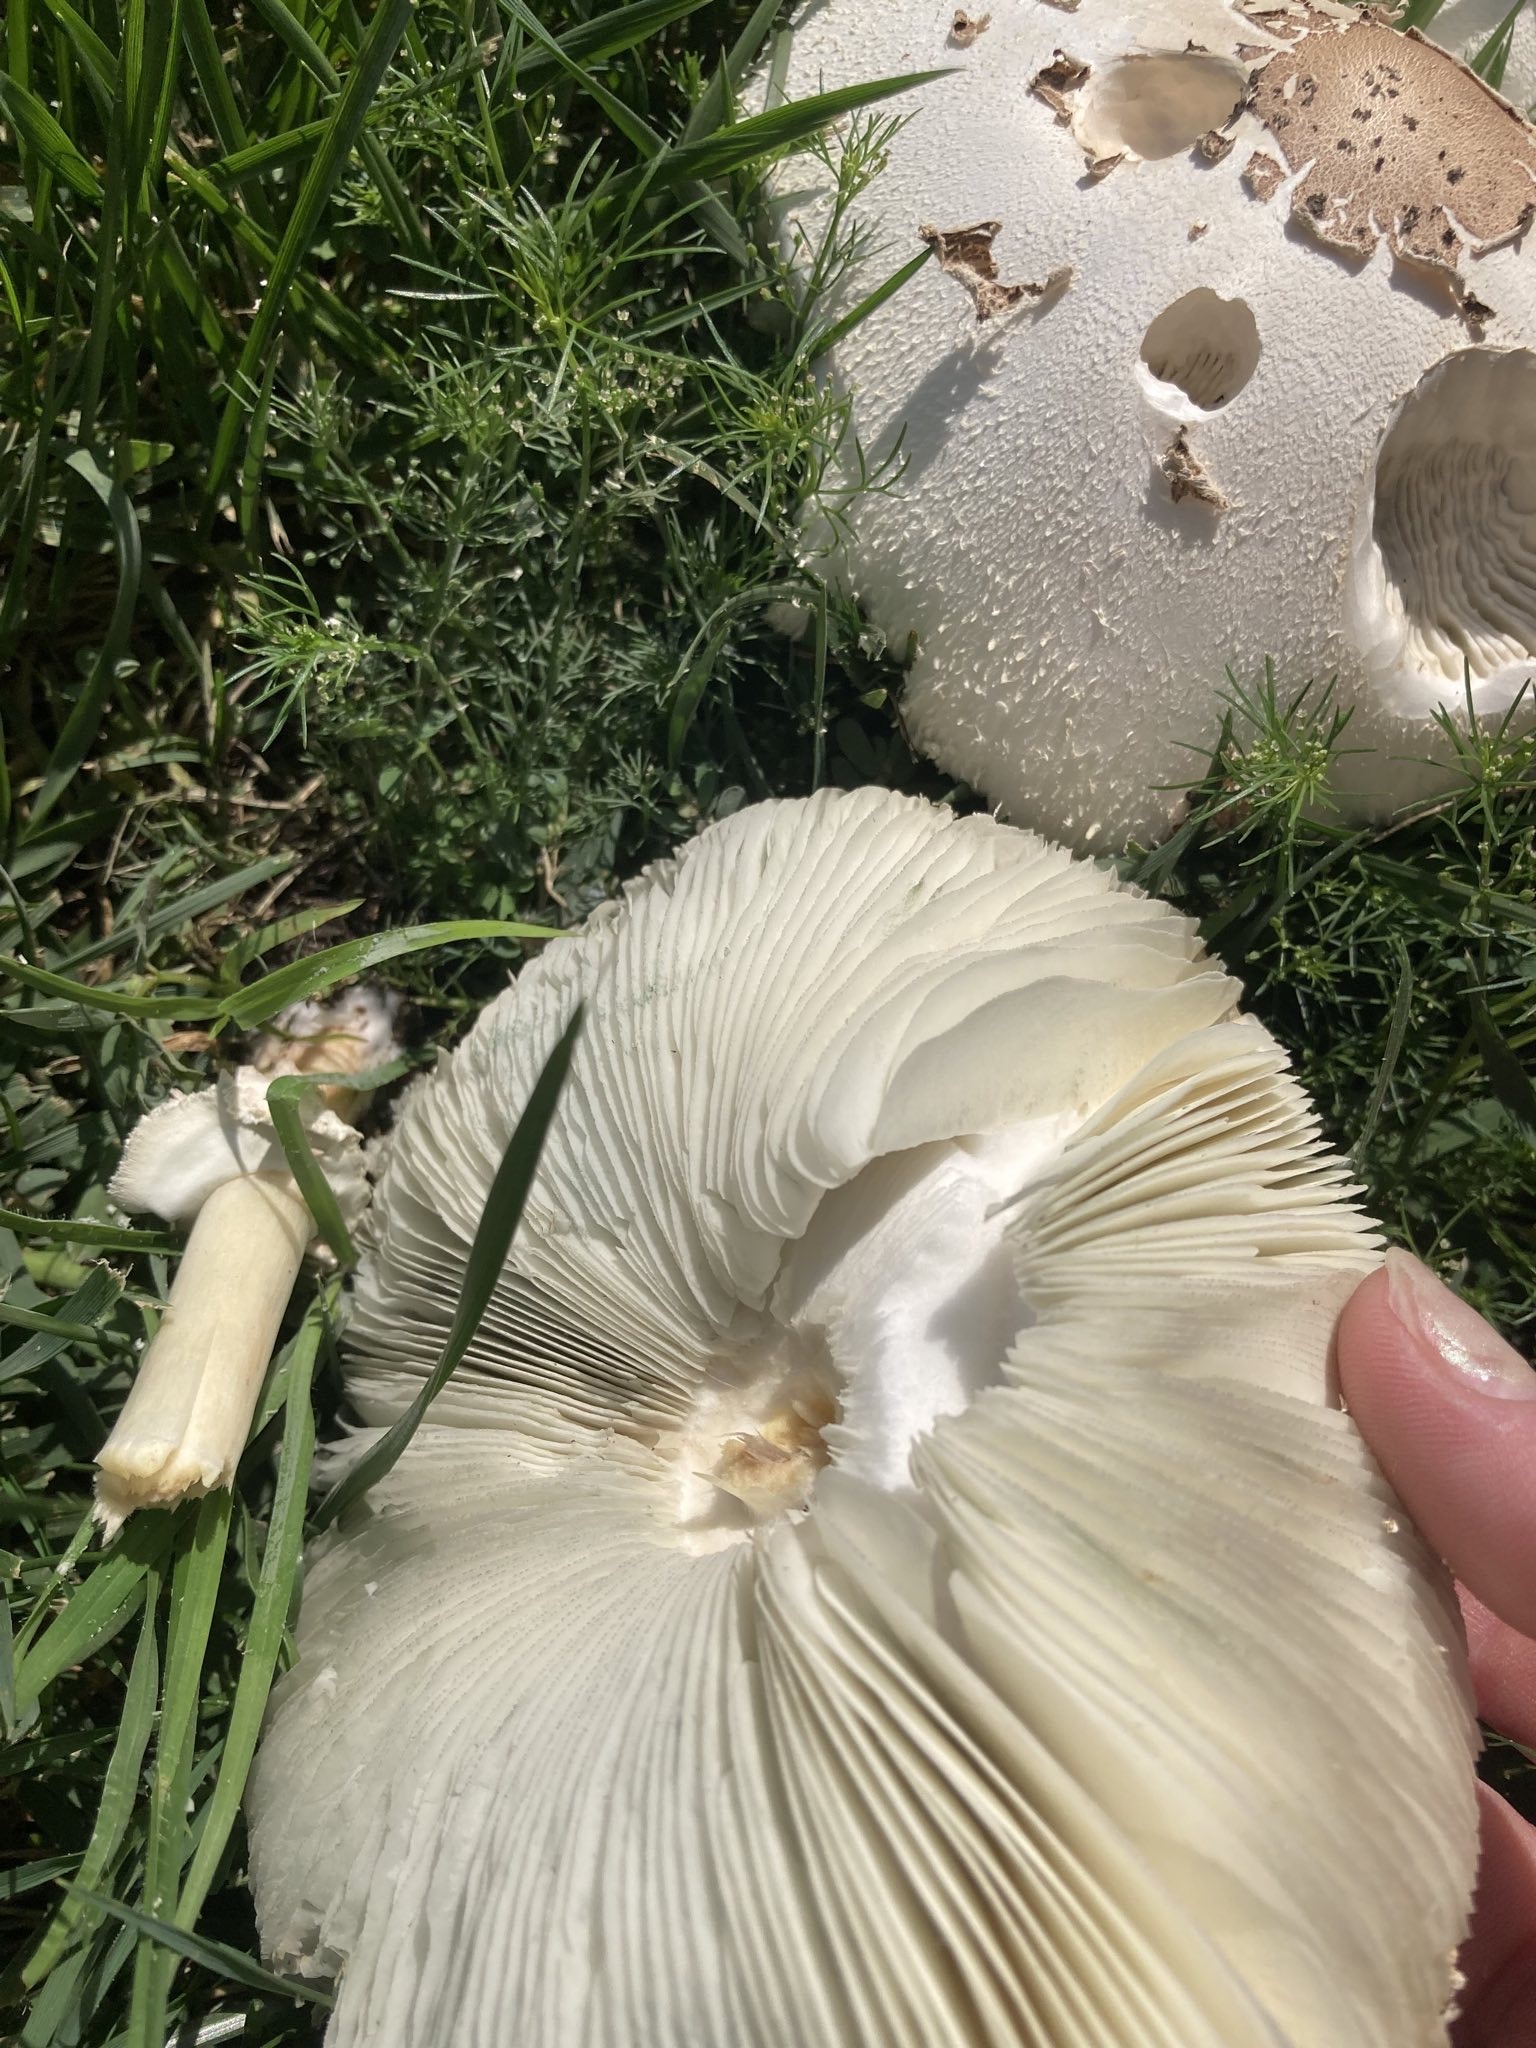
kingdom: Fungi
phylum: Basidiomycota
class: Agaricomycetes
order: Agaricales
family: Agaricaceae
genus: Chlorophyllum
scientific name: Chlorophyllum molybdites
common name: False parasol
